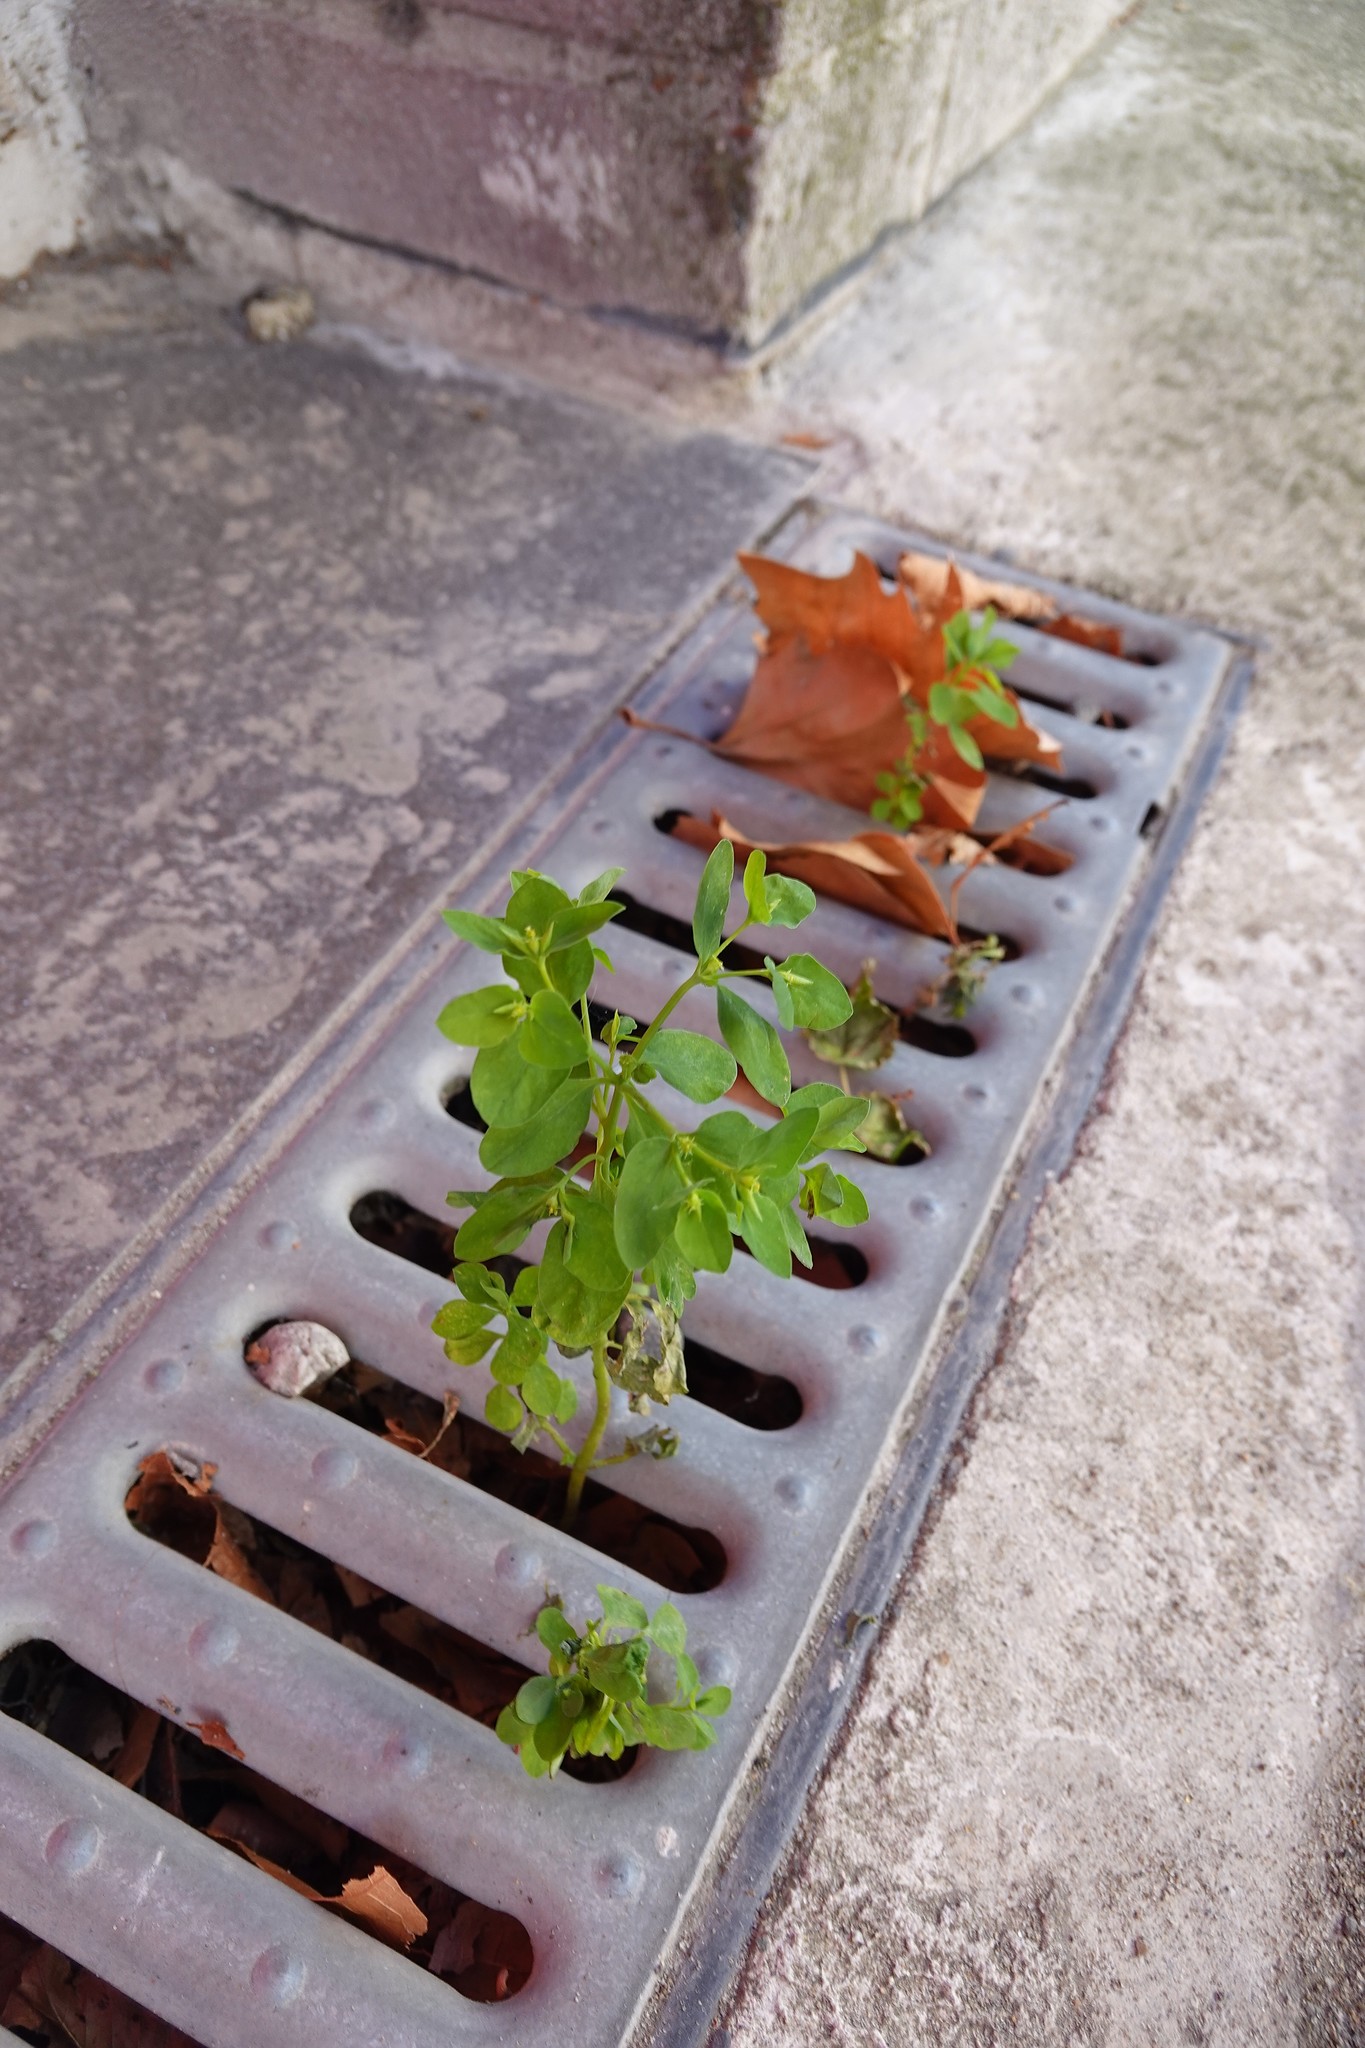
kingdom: Plantae
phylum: Tracheophyta
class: Magnoliopsida
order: Malpighiales
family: Euphorbiaceae
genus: Euphorbia
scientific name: Euphorbia peplus
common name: Petty spurge
